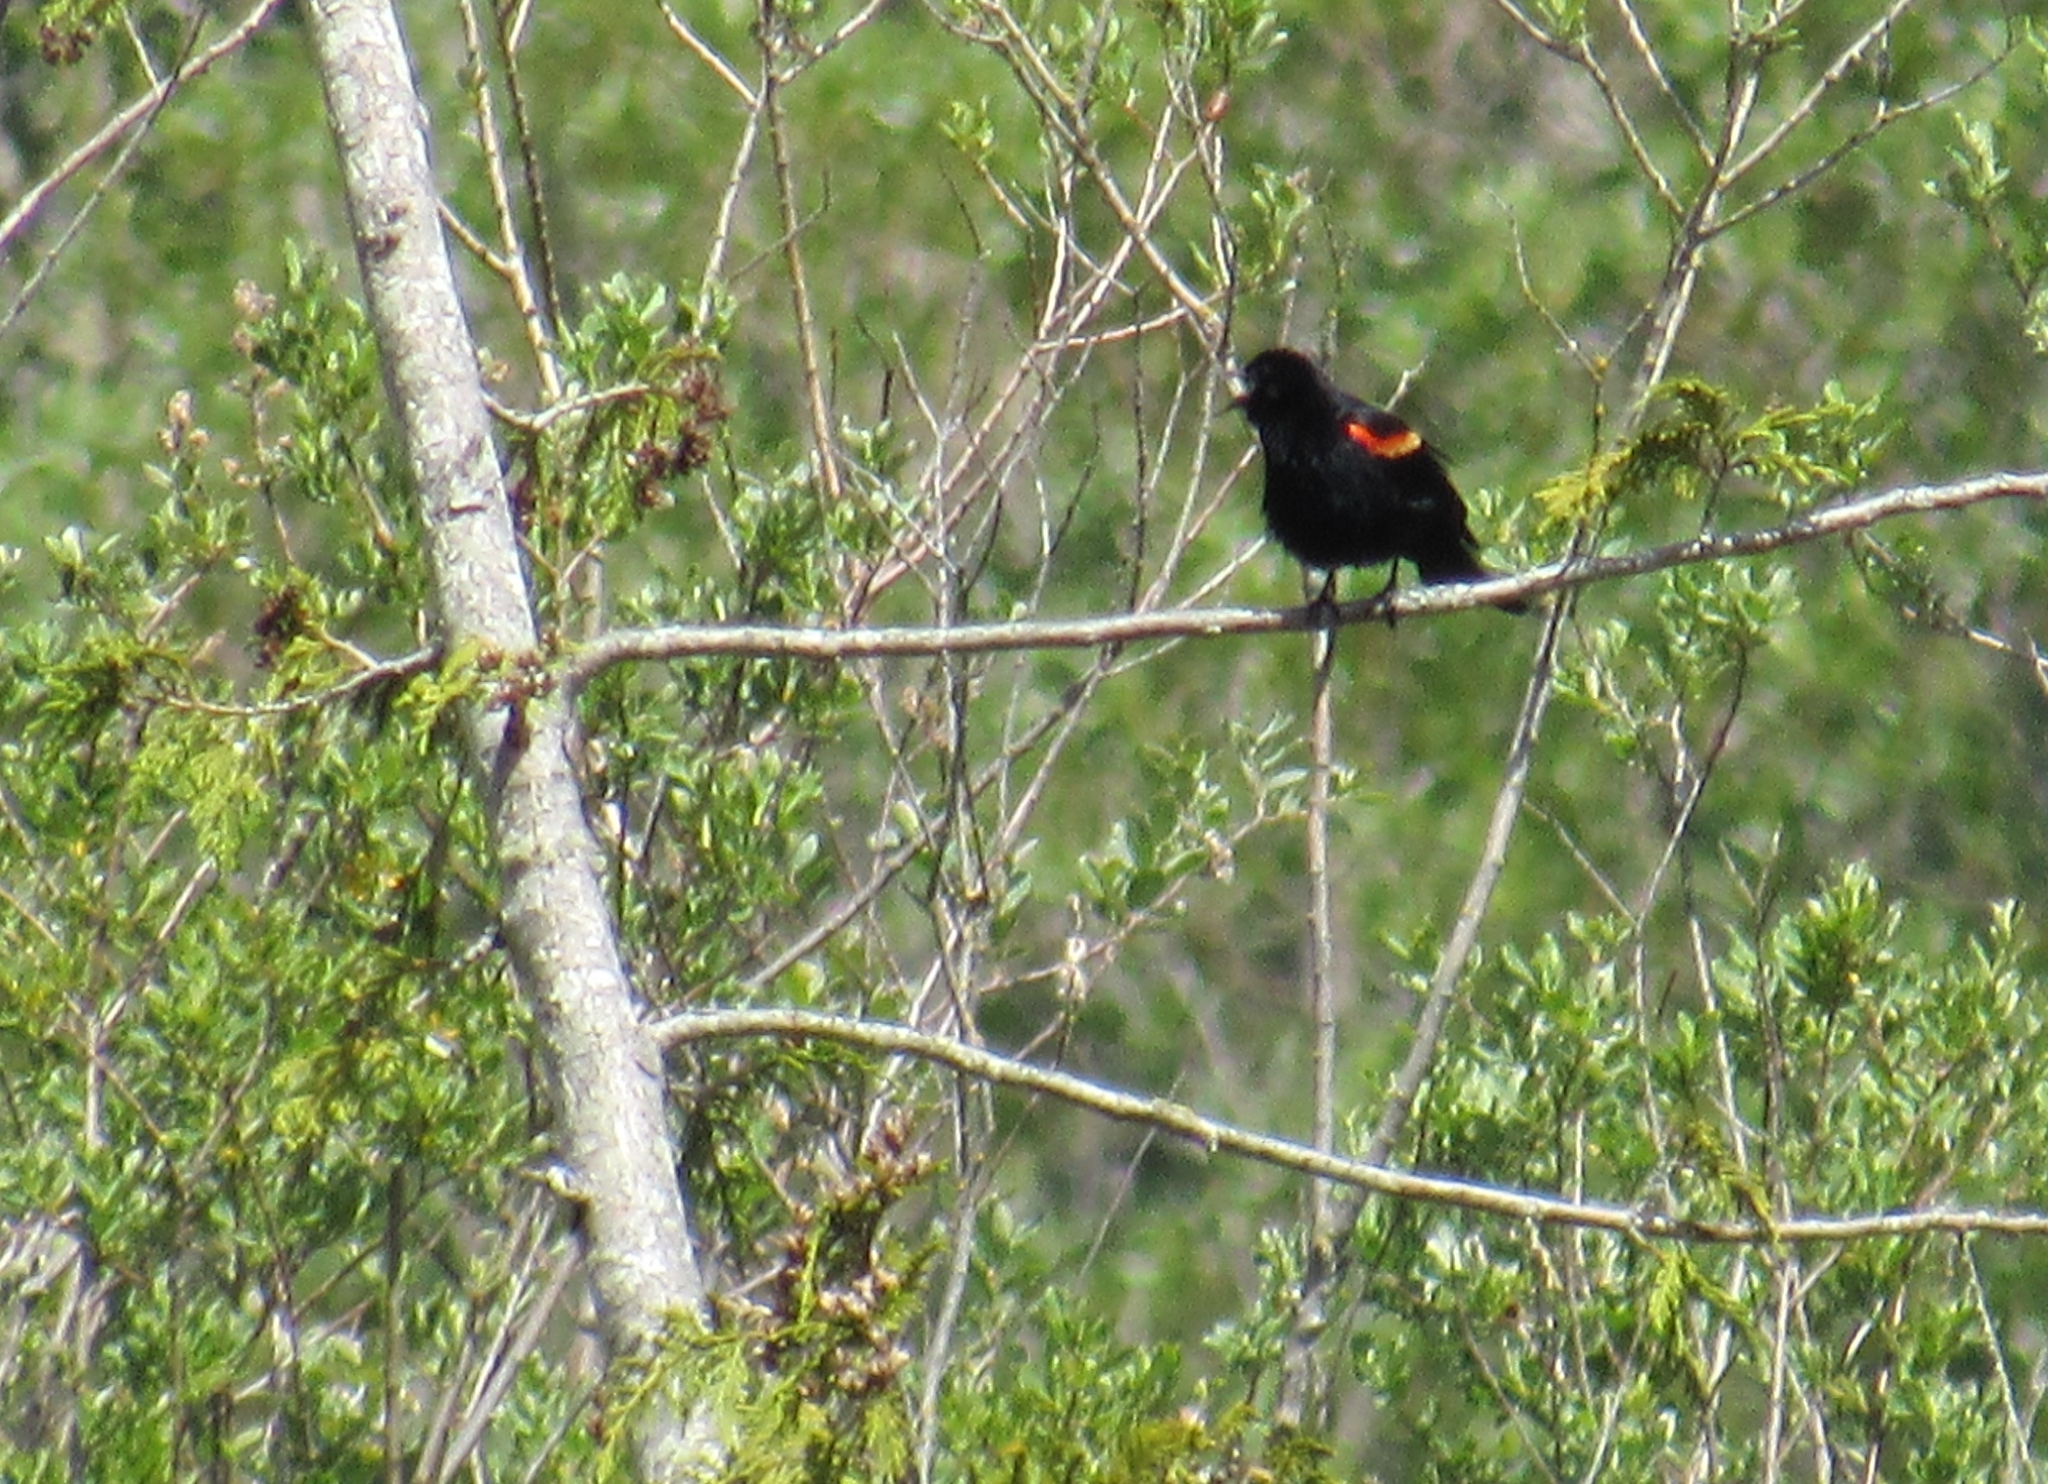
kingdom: Animalia
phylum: Chordata
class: Aves
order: Passeriformes
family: Icteridae
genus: Agelaius
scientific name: Agelaius phoeniceus
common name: Red-winged blackbird
